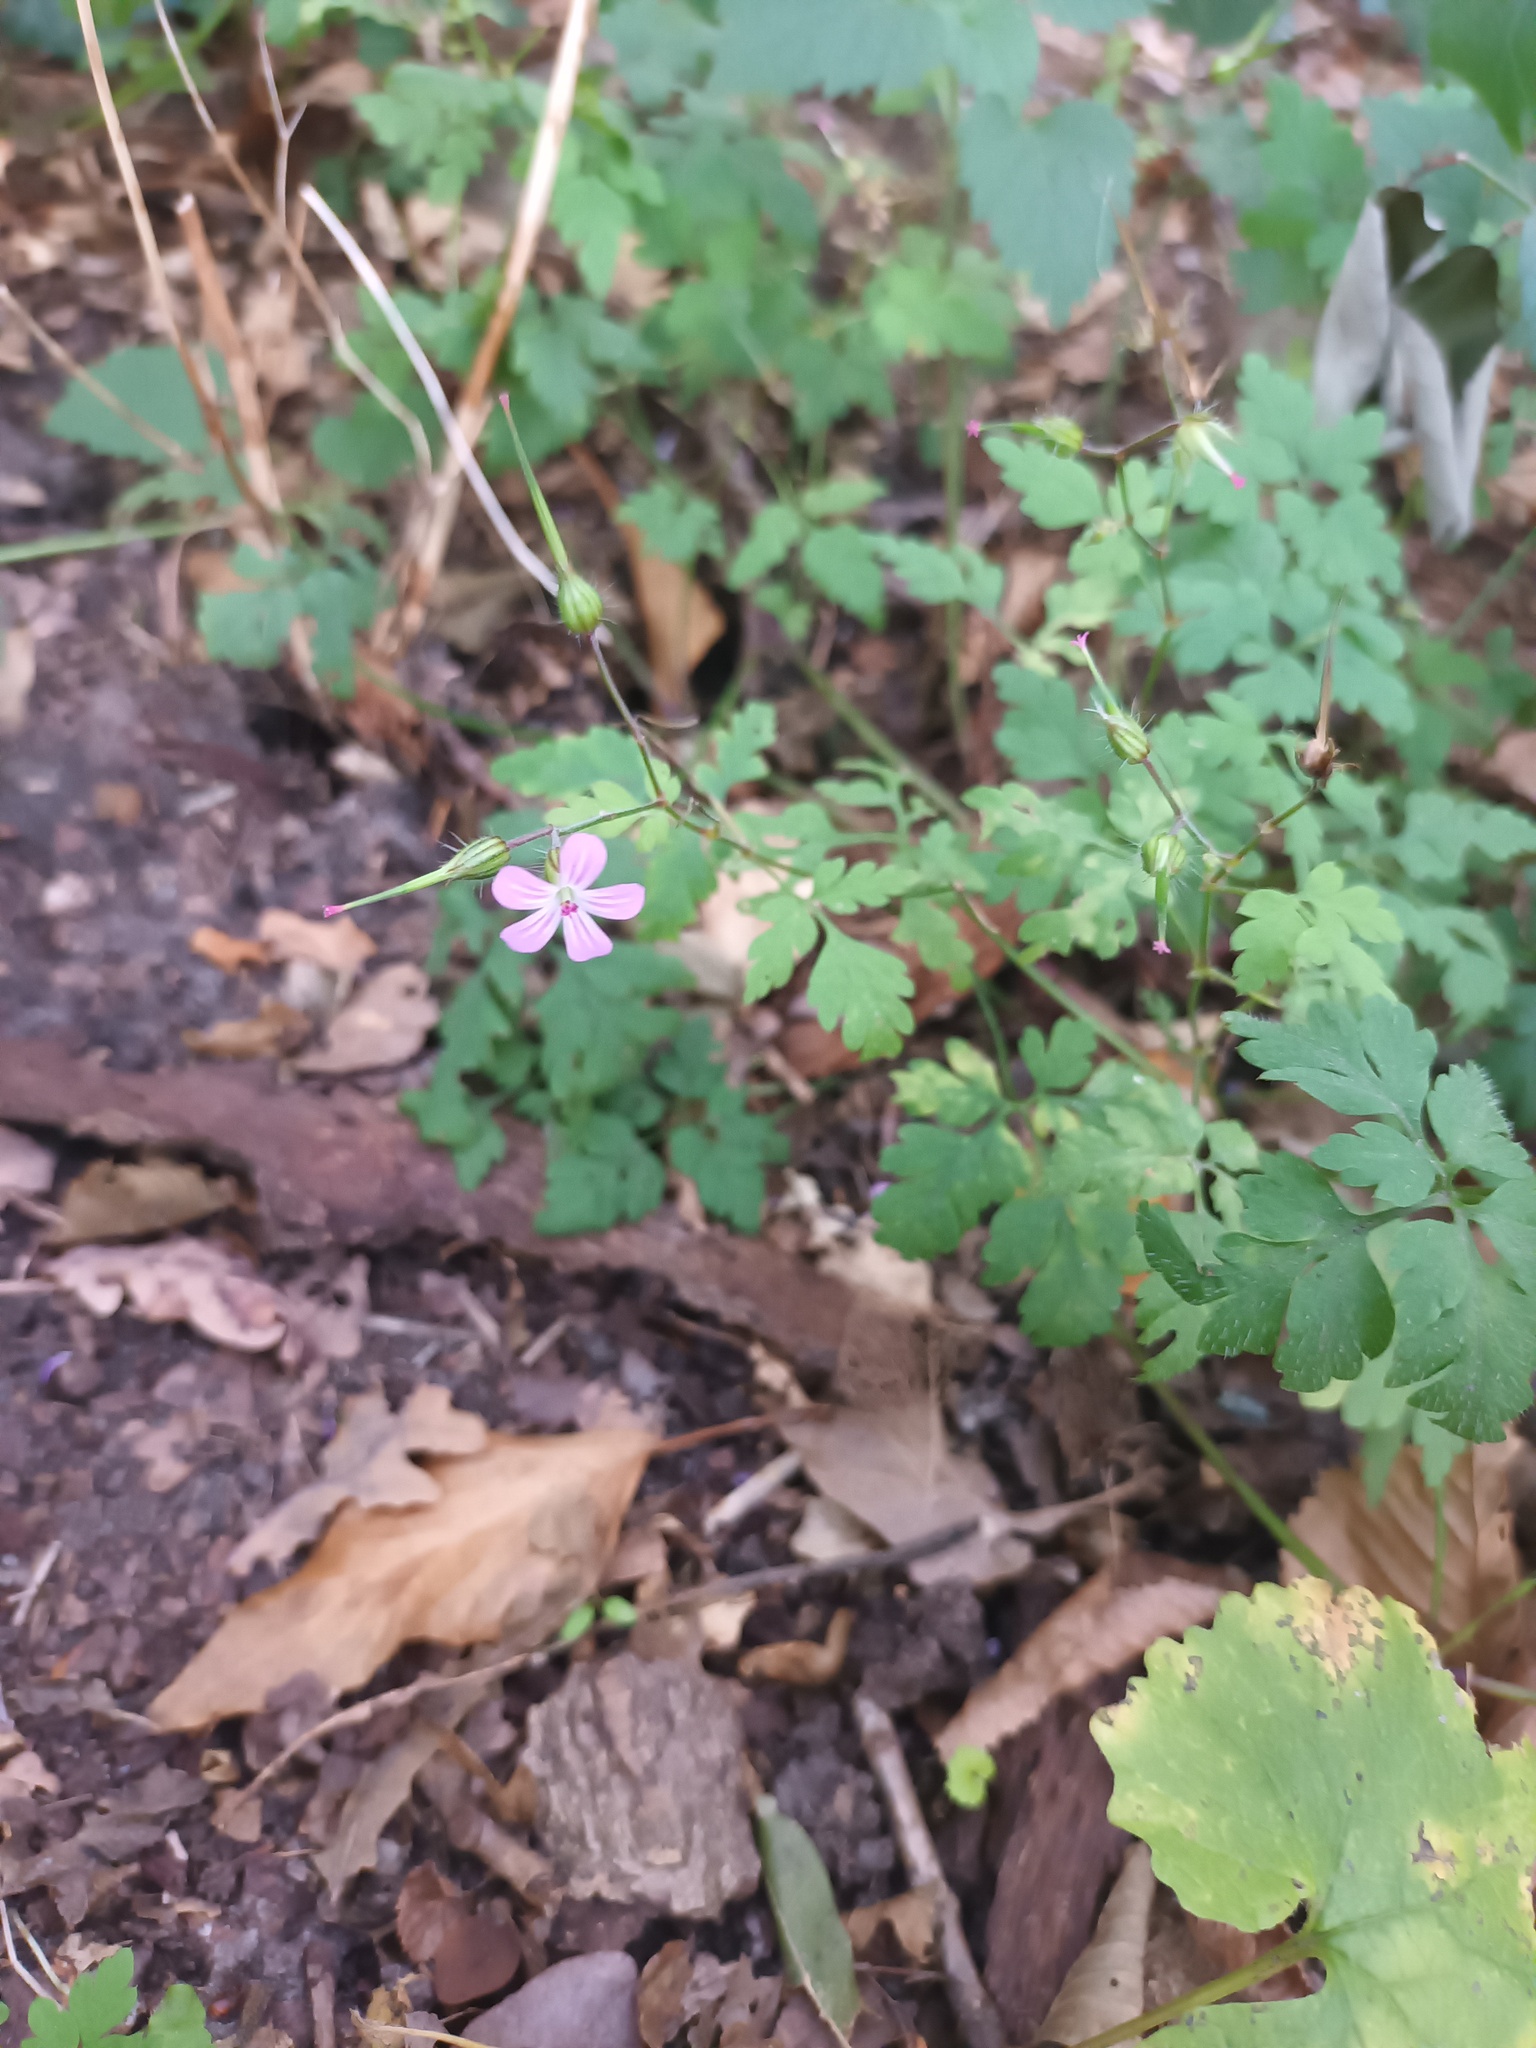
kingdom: Plantae
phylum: Tracheophyta
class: Magnoliopsida
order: Geraniales
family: Geraniaceae
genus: Geranium
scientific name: Geranium robertianum
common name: Herb-robert
